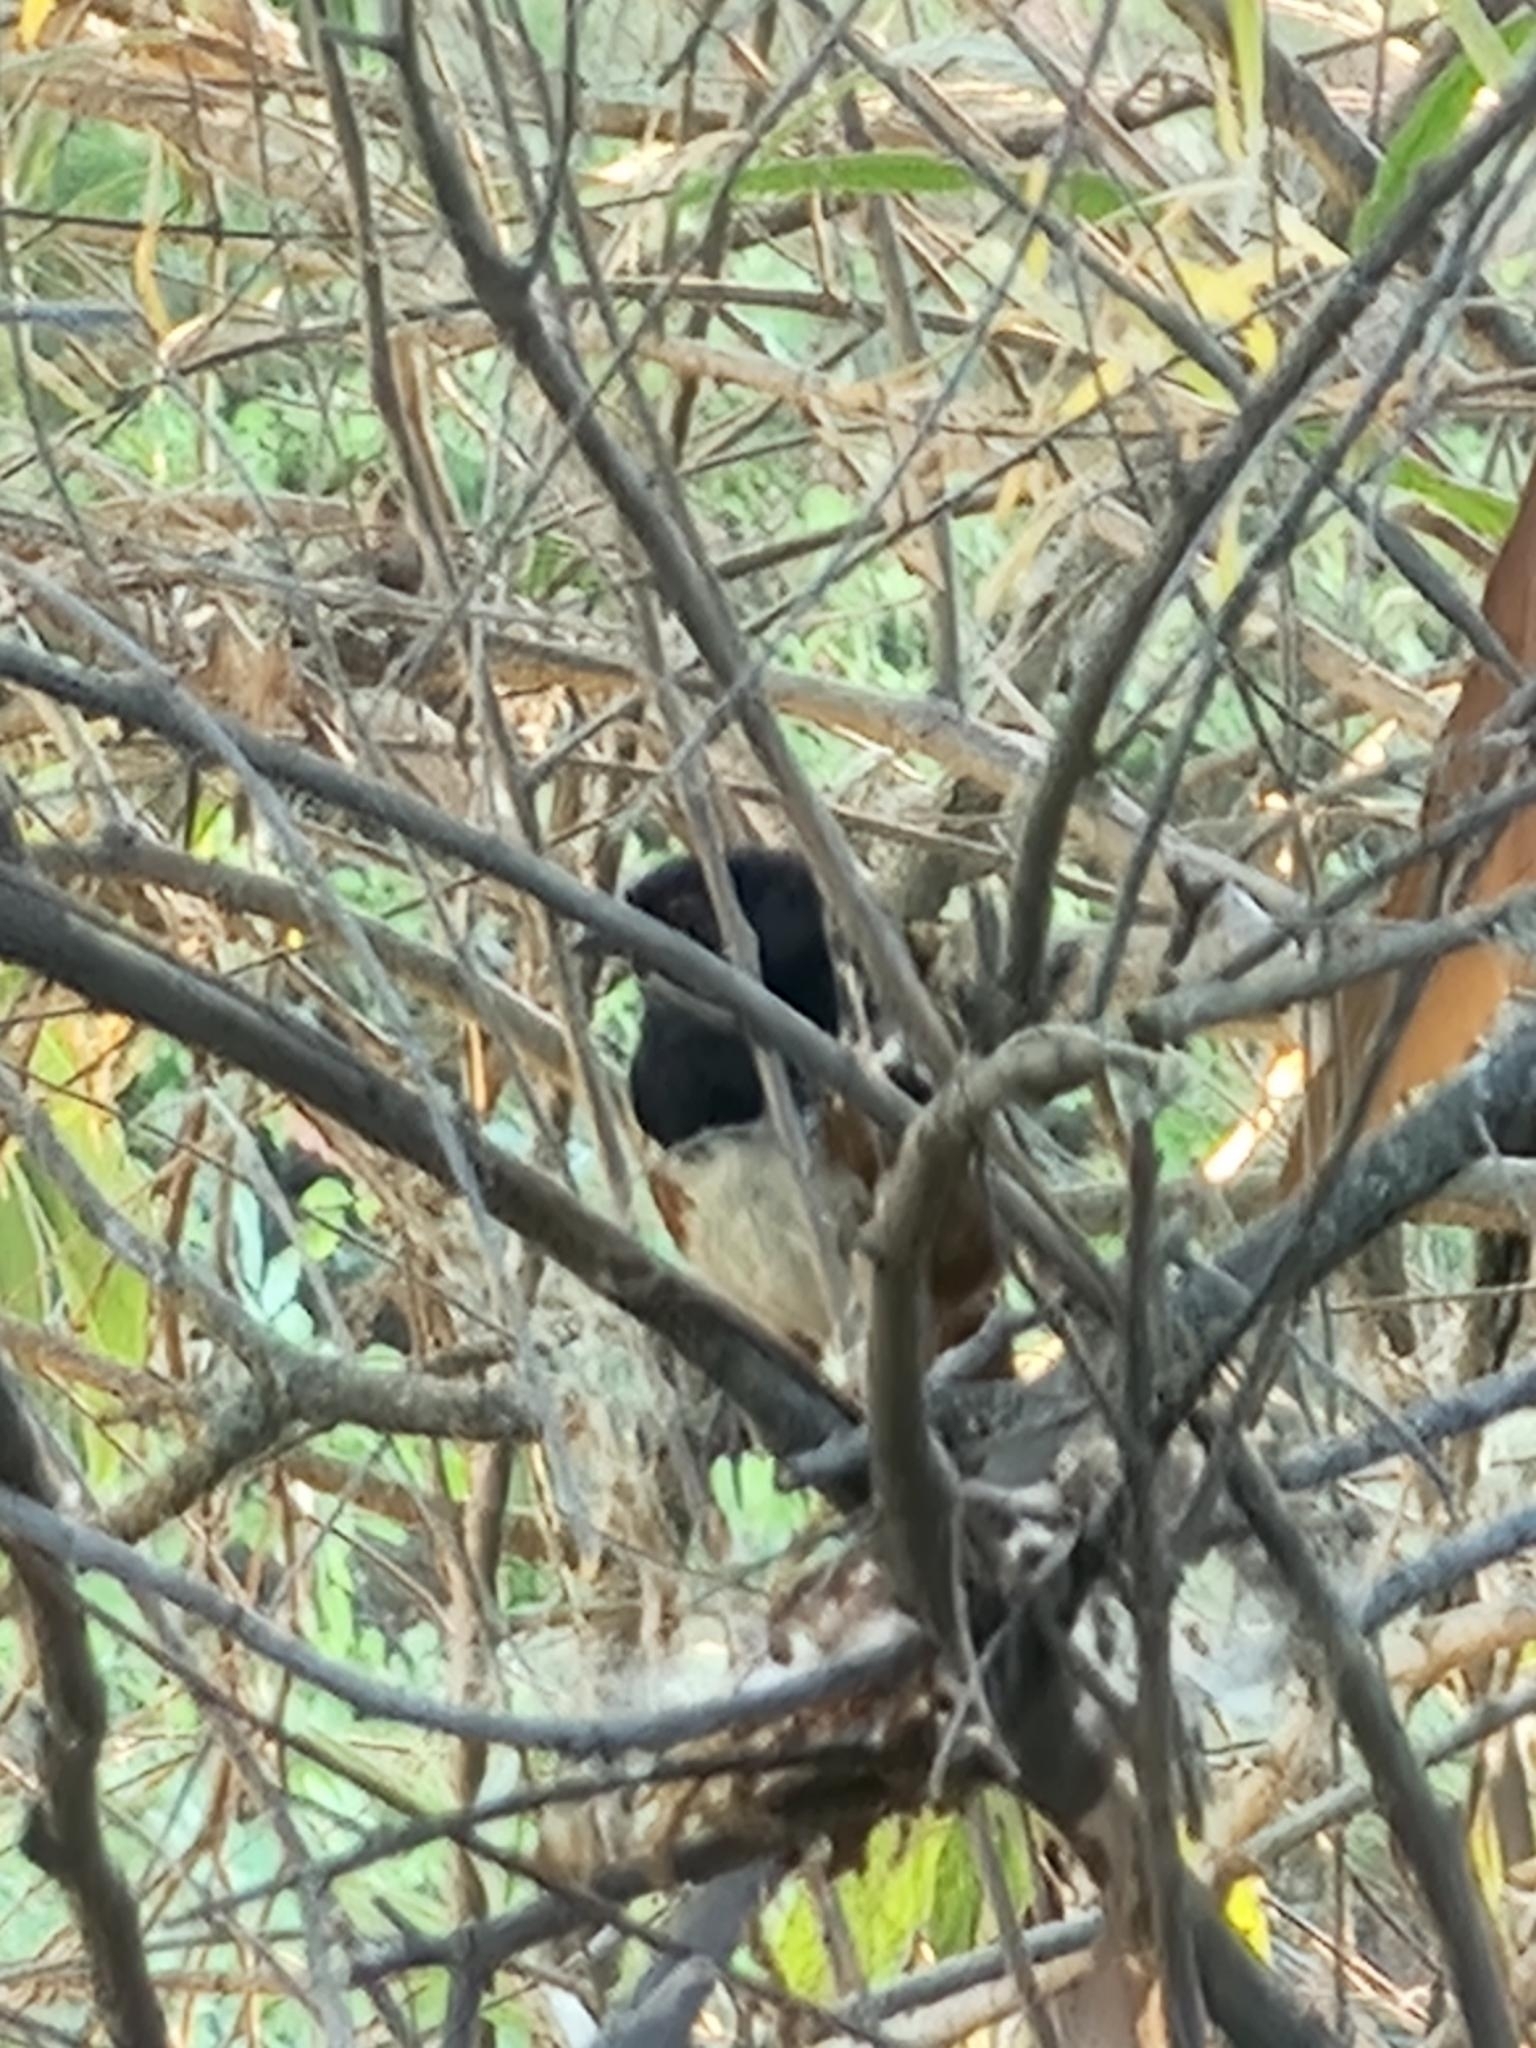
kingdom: Animalia
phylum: Chordata
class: Aves
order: Passeriformes
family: Passerellidae
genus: Pipilo
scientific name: Pipilo maculatus
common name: Spotted towhee
